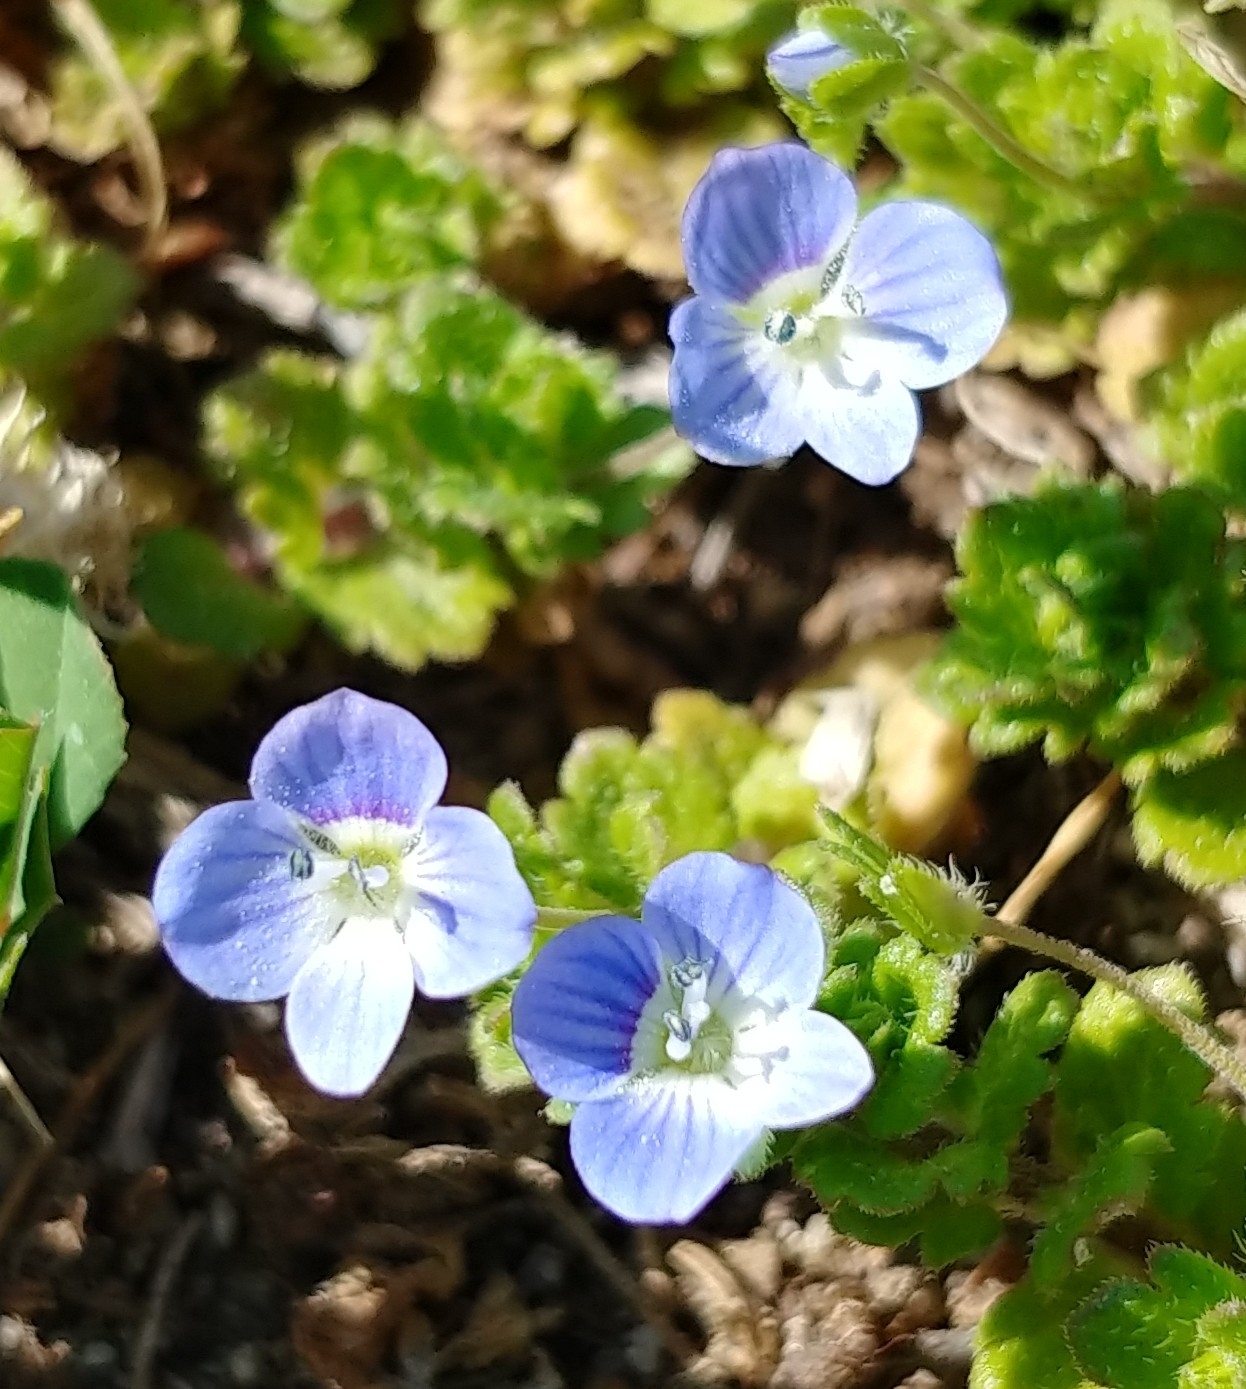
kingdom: Plantae
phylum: Tracheophyta
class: Magnoliopsida
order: Lamiales
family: Plantaginaceae
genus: Veronica
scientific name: Veronica persica
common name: Common field-speedwell
